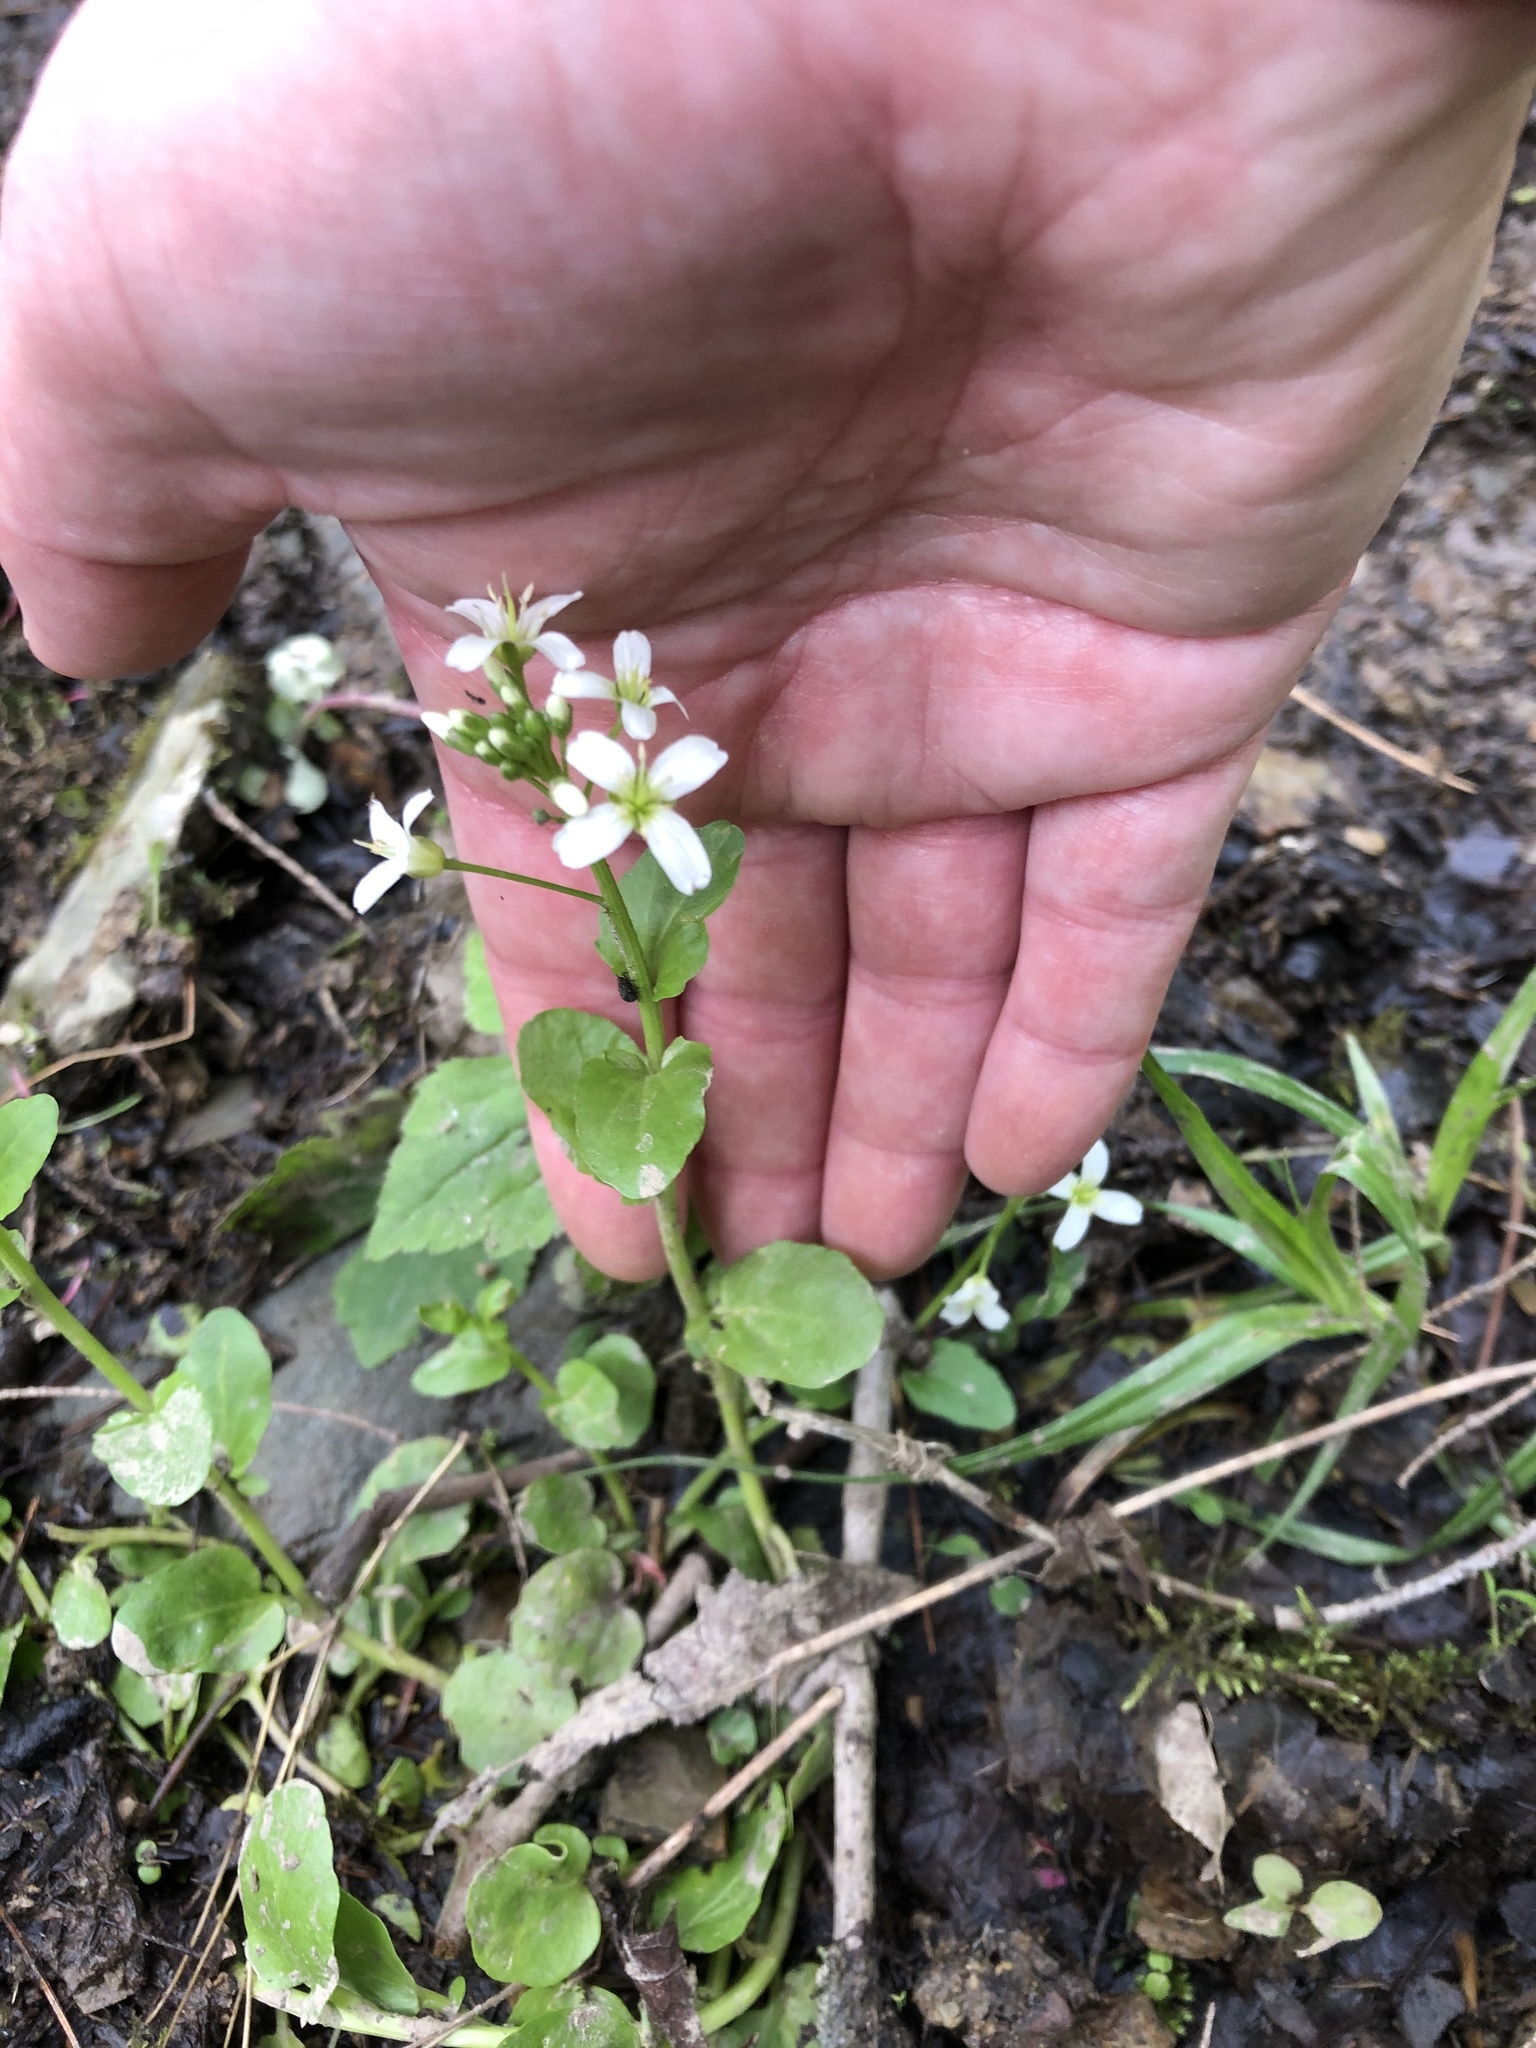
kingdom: Plantae
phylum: Tracheophyta
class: Magnoliopsida
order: Brassicales
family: Brassicaceae
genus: Cardamine
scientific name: Cardamine bulbosa
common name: Spring cress
